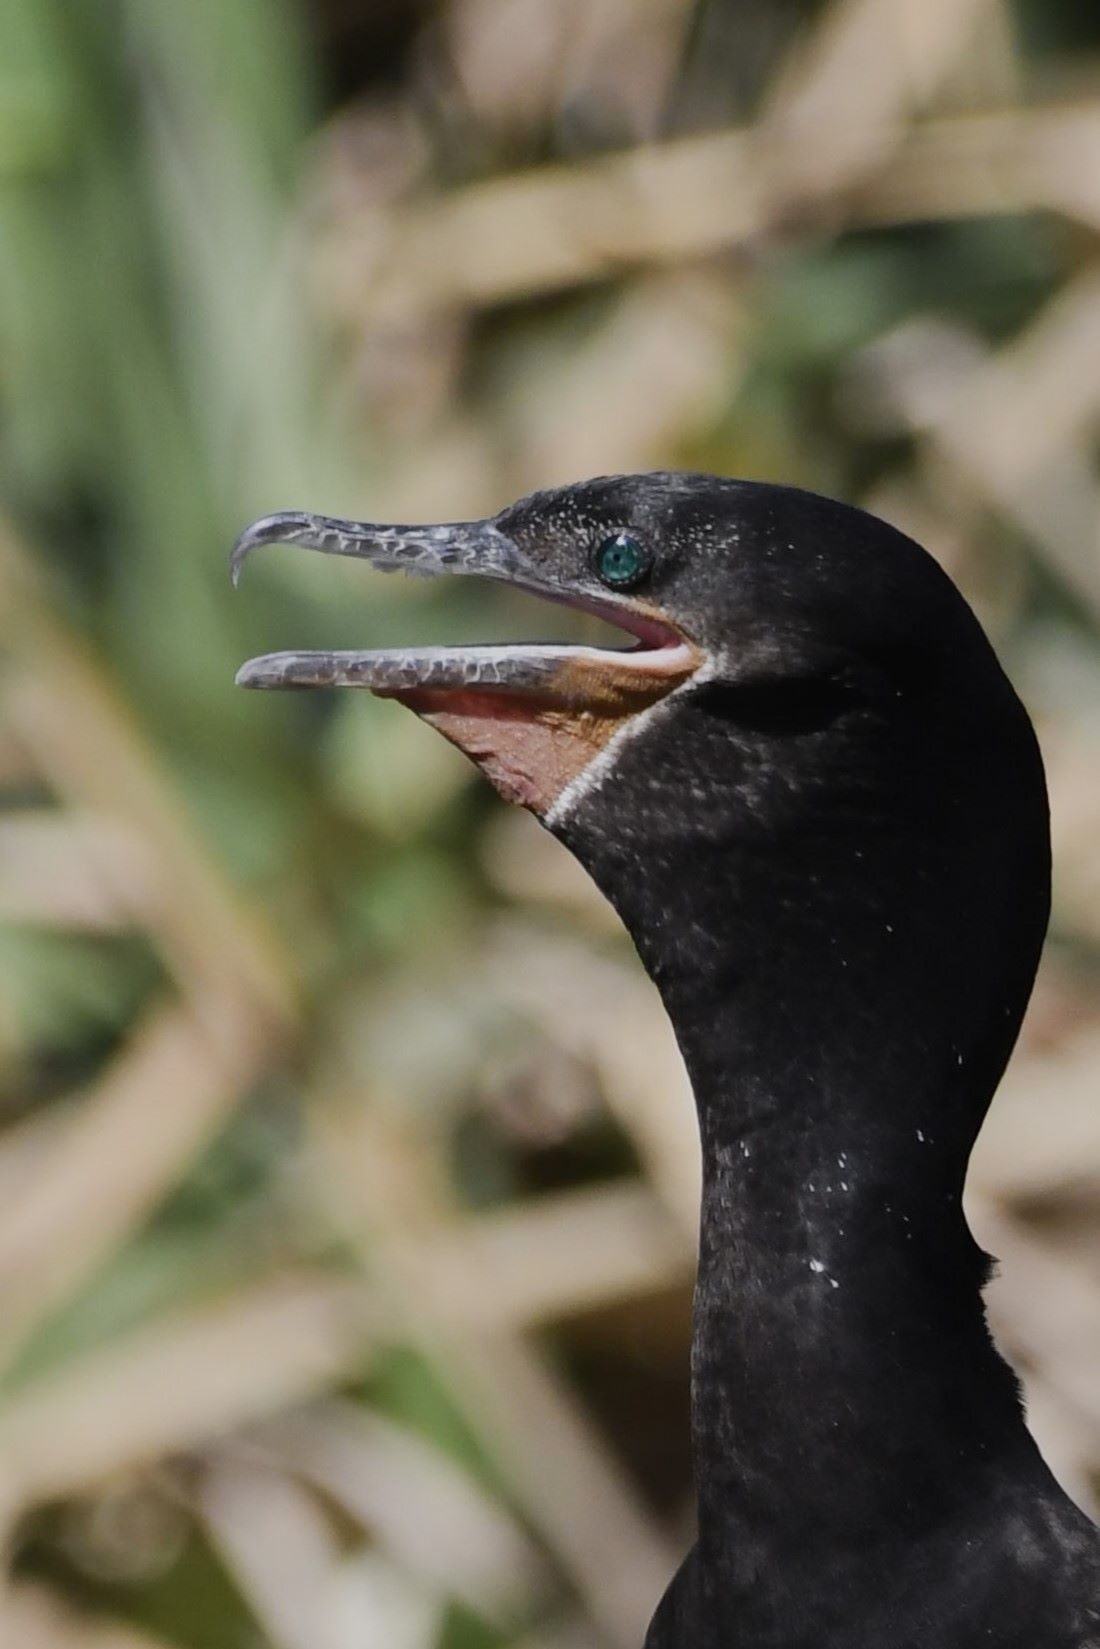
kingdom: Animalia
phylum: Chordata
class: Aves
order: Suliformes
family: Phalacrocoracidae
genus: Phalacrocorax
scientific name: Phalacrocorax brasilianus
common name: Neotropic cormorant
